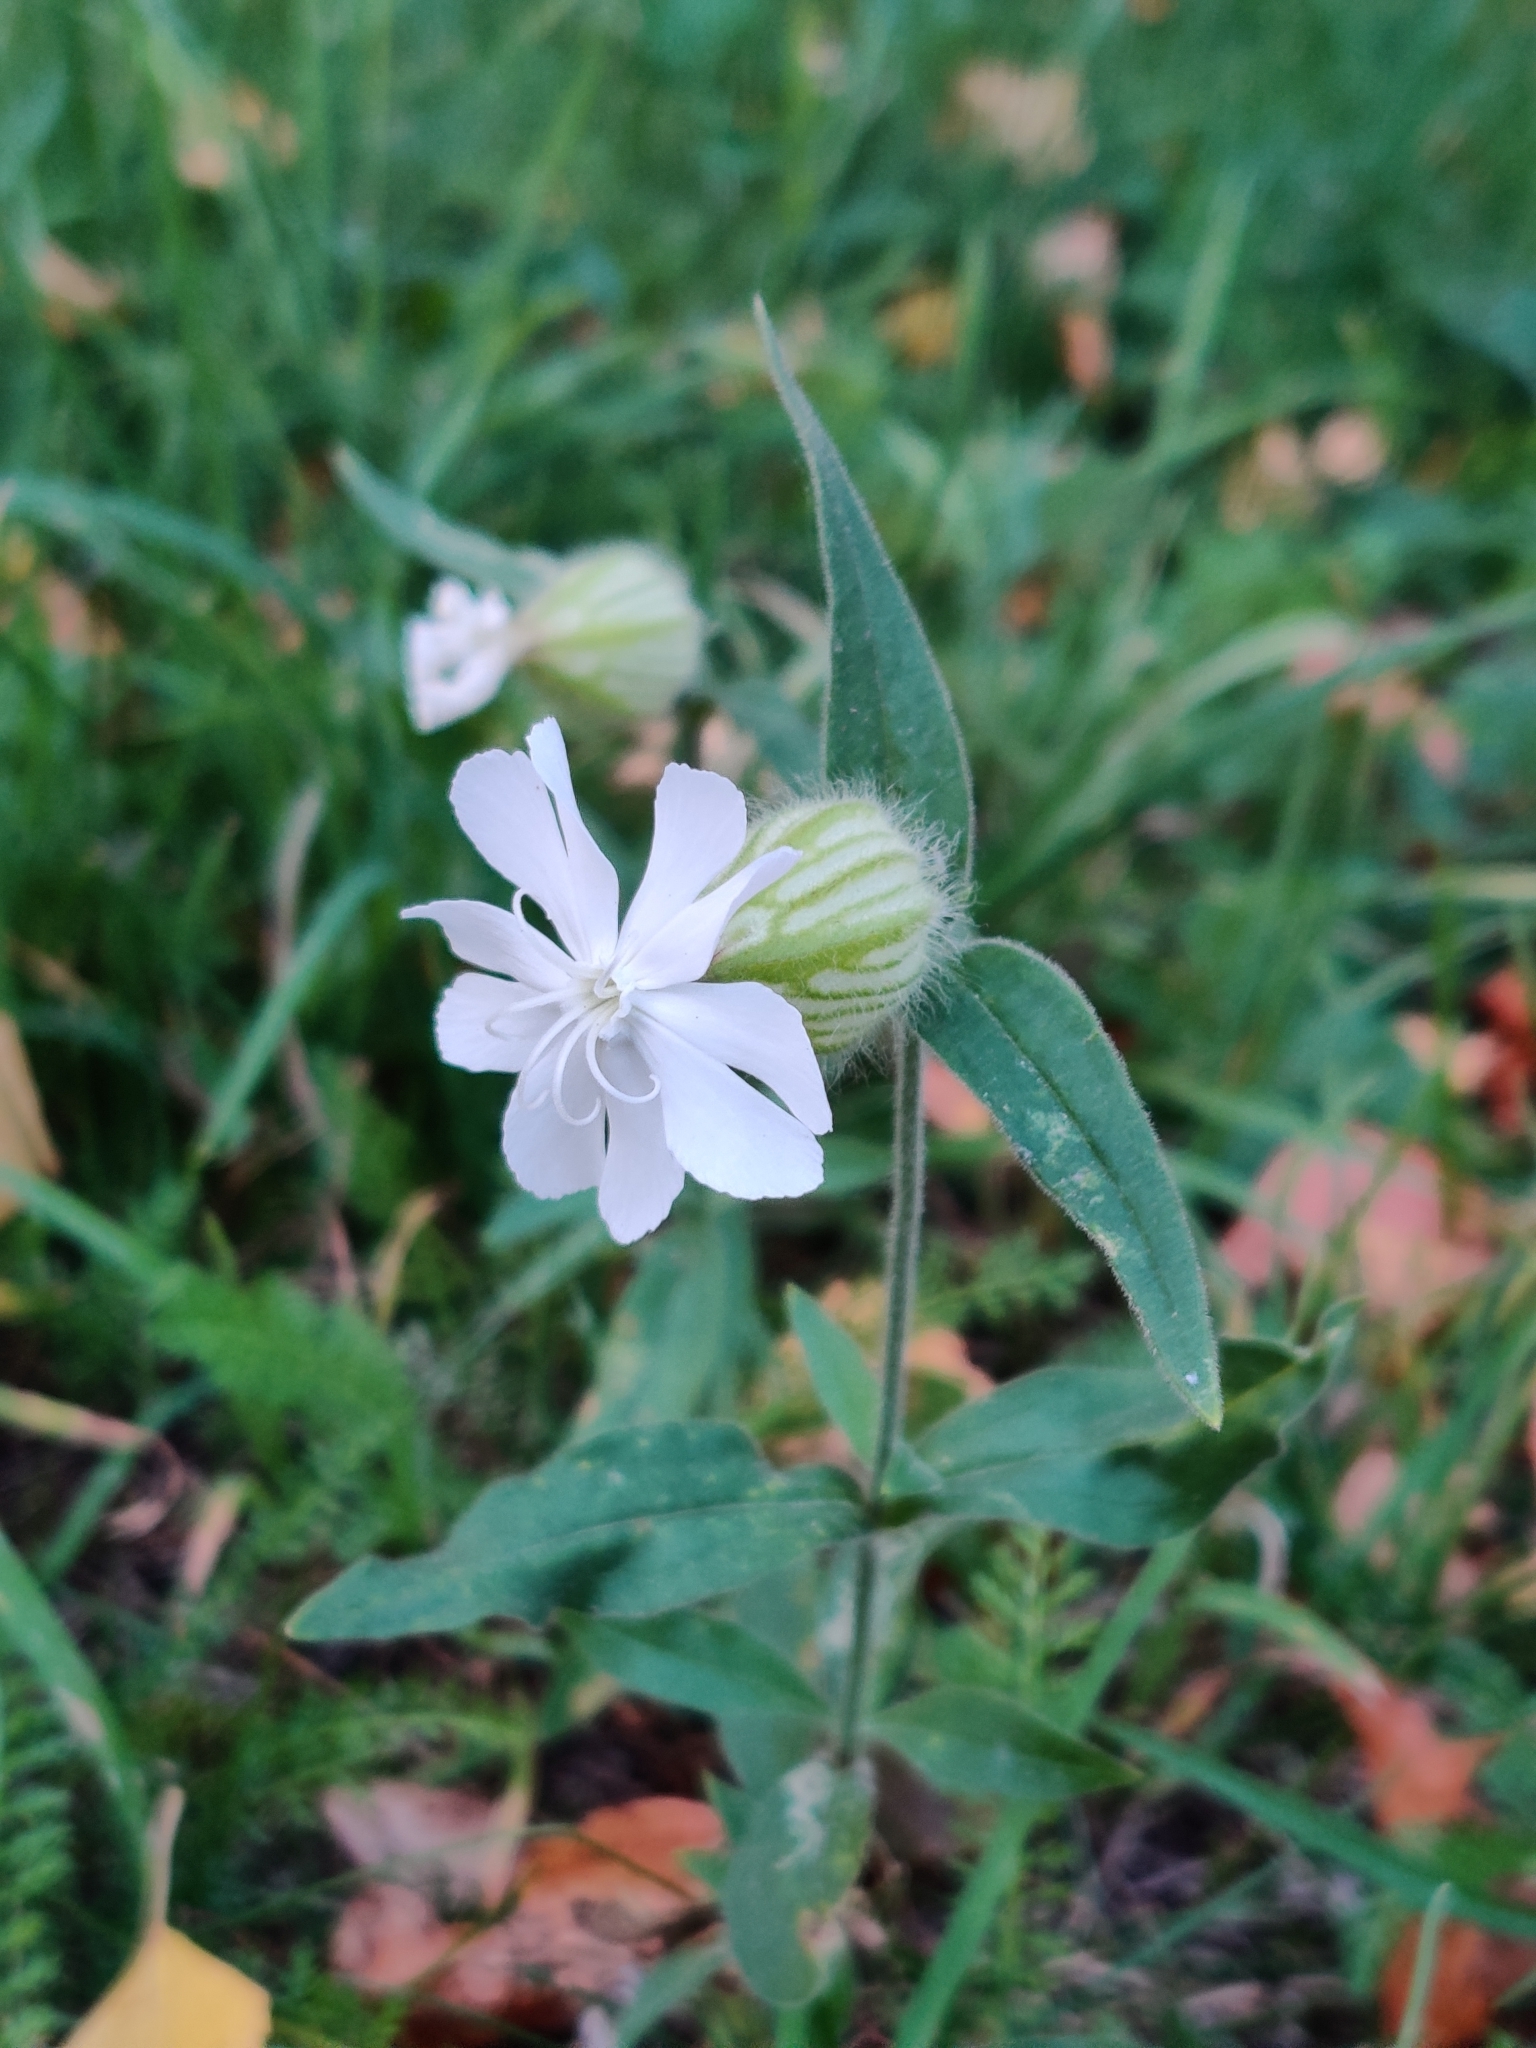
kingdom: Plantae
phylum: Tracheophyta
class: Magnoliopsida
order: Caryophyllales
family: Caryophyllaceae
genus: Silene
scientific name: Silene latifolia
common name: White campion
